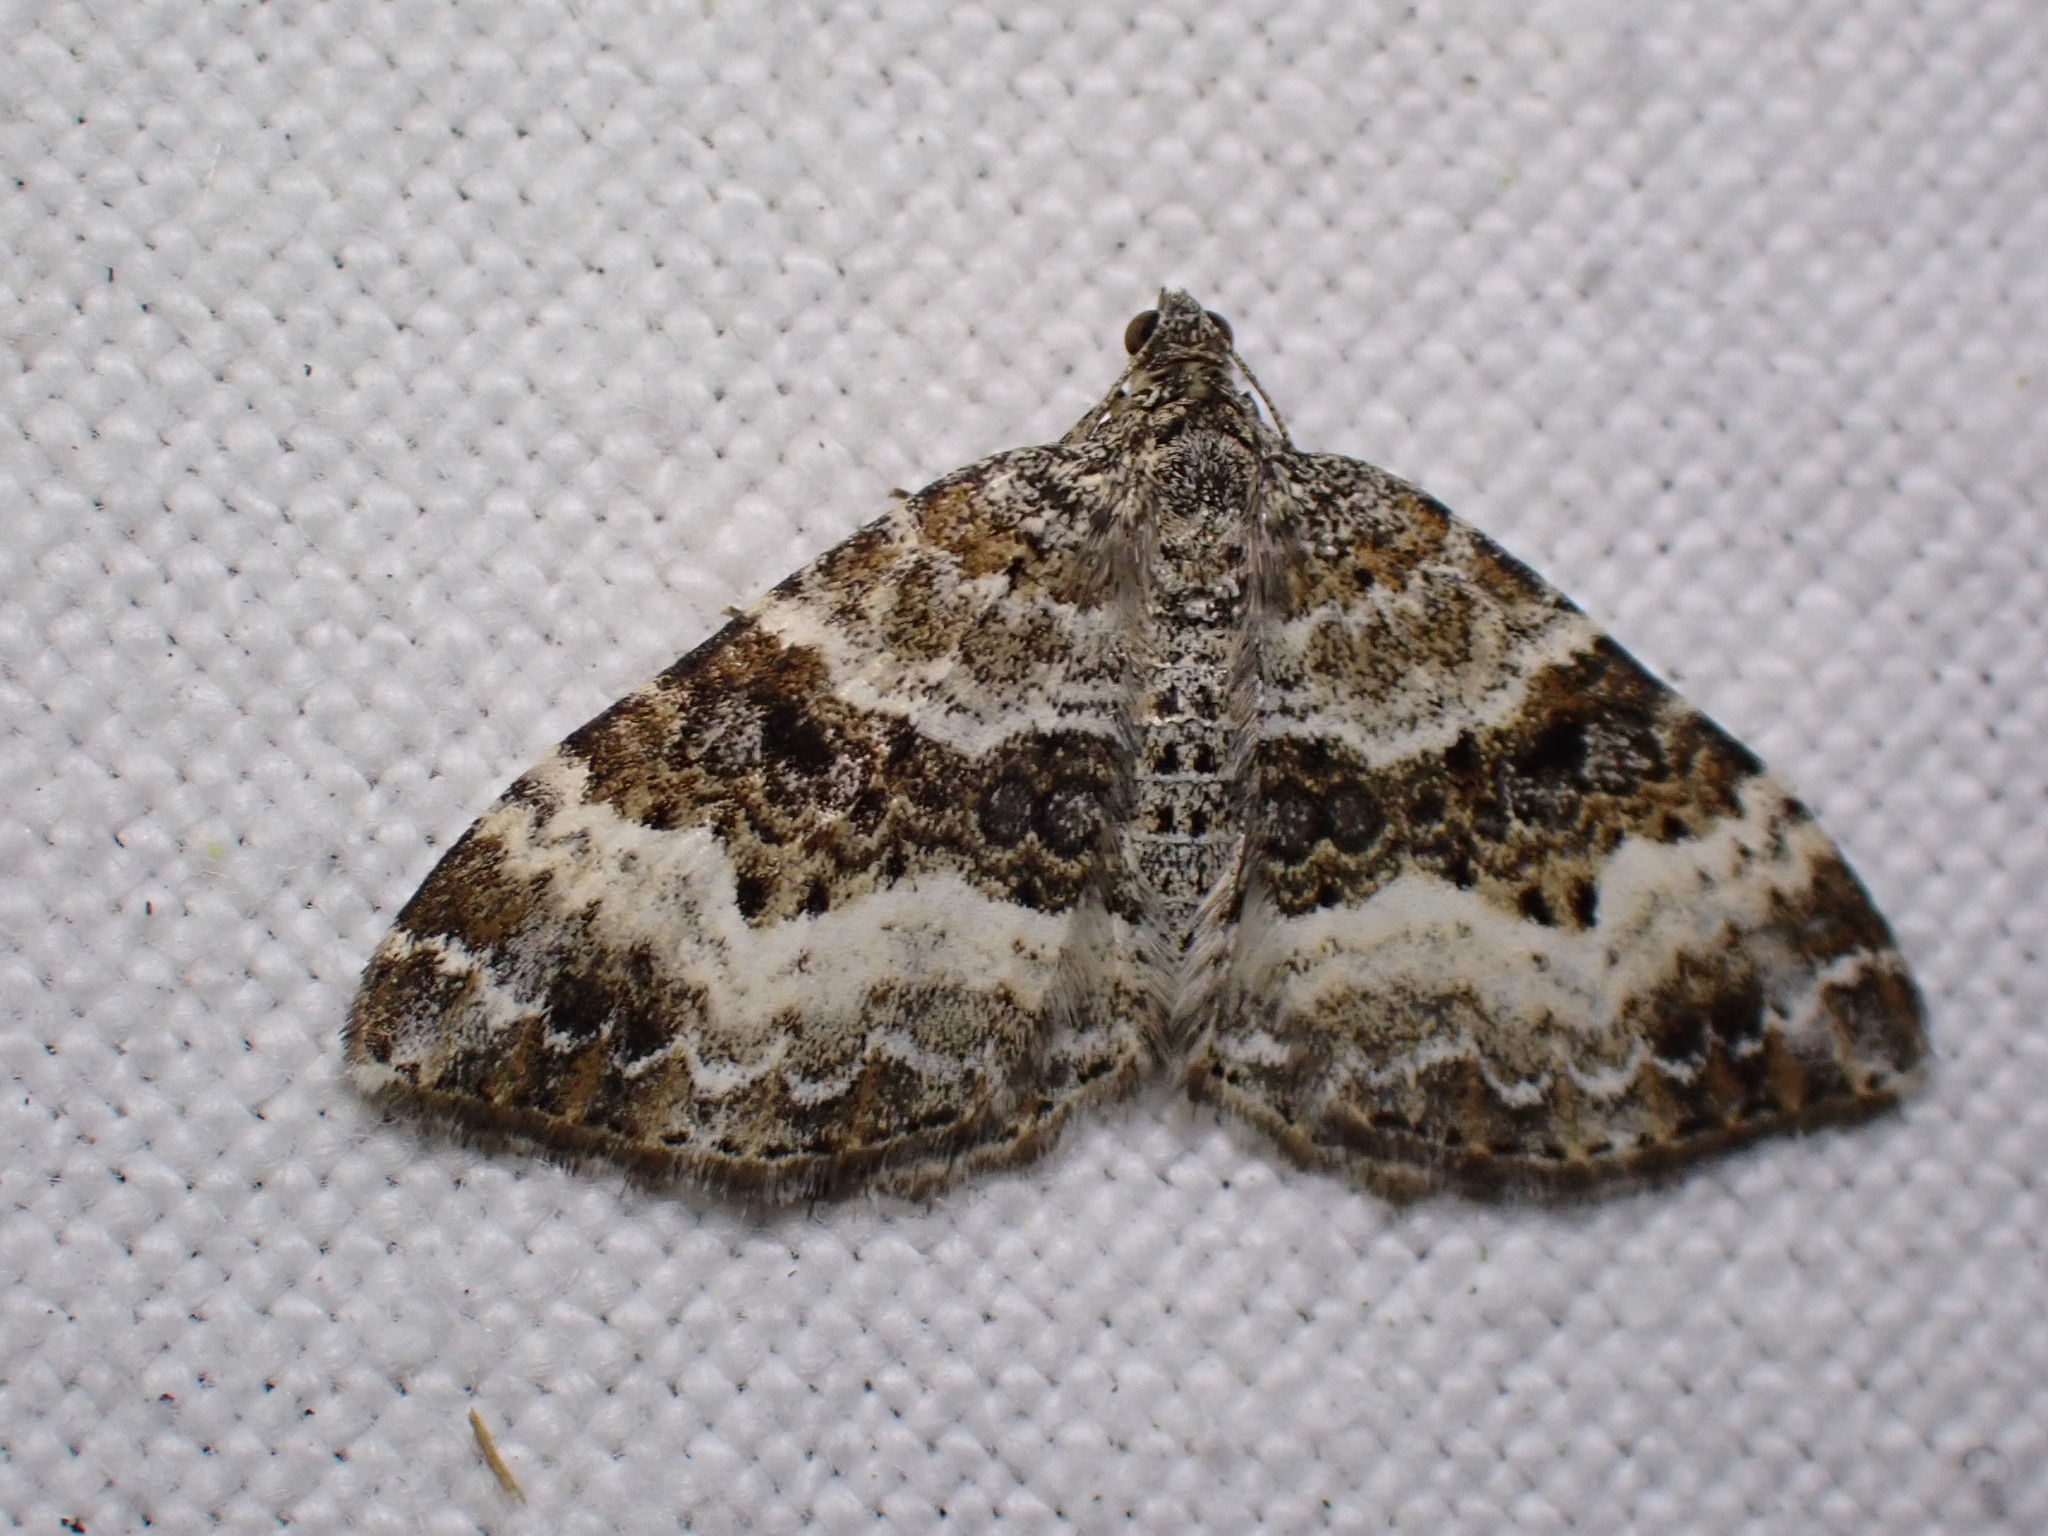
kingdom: Animalia
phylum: Arthropoda
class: Insecta
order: Lepidoptera
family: Geometridae
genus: Epirrhoe
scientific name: Epirrhoe alternata
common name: Common carpet
